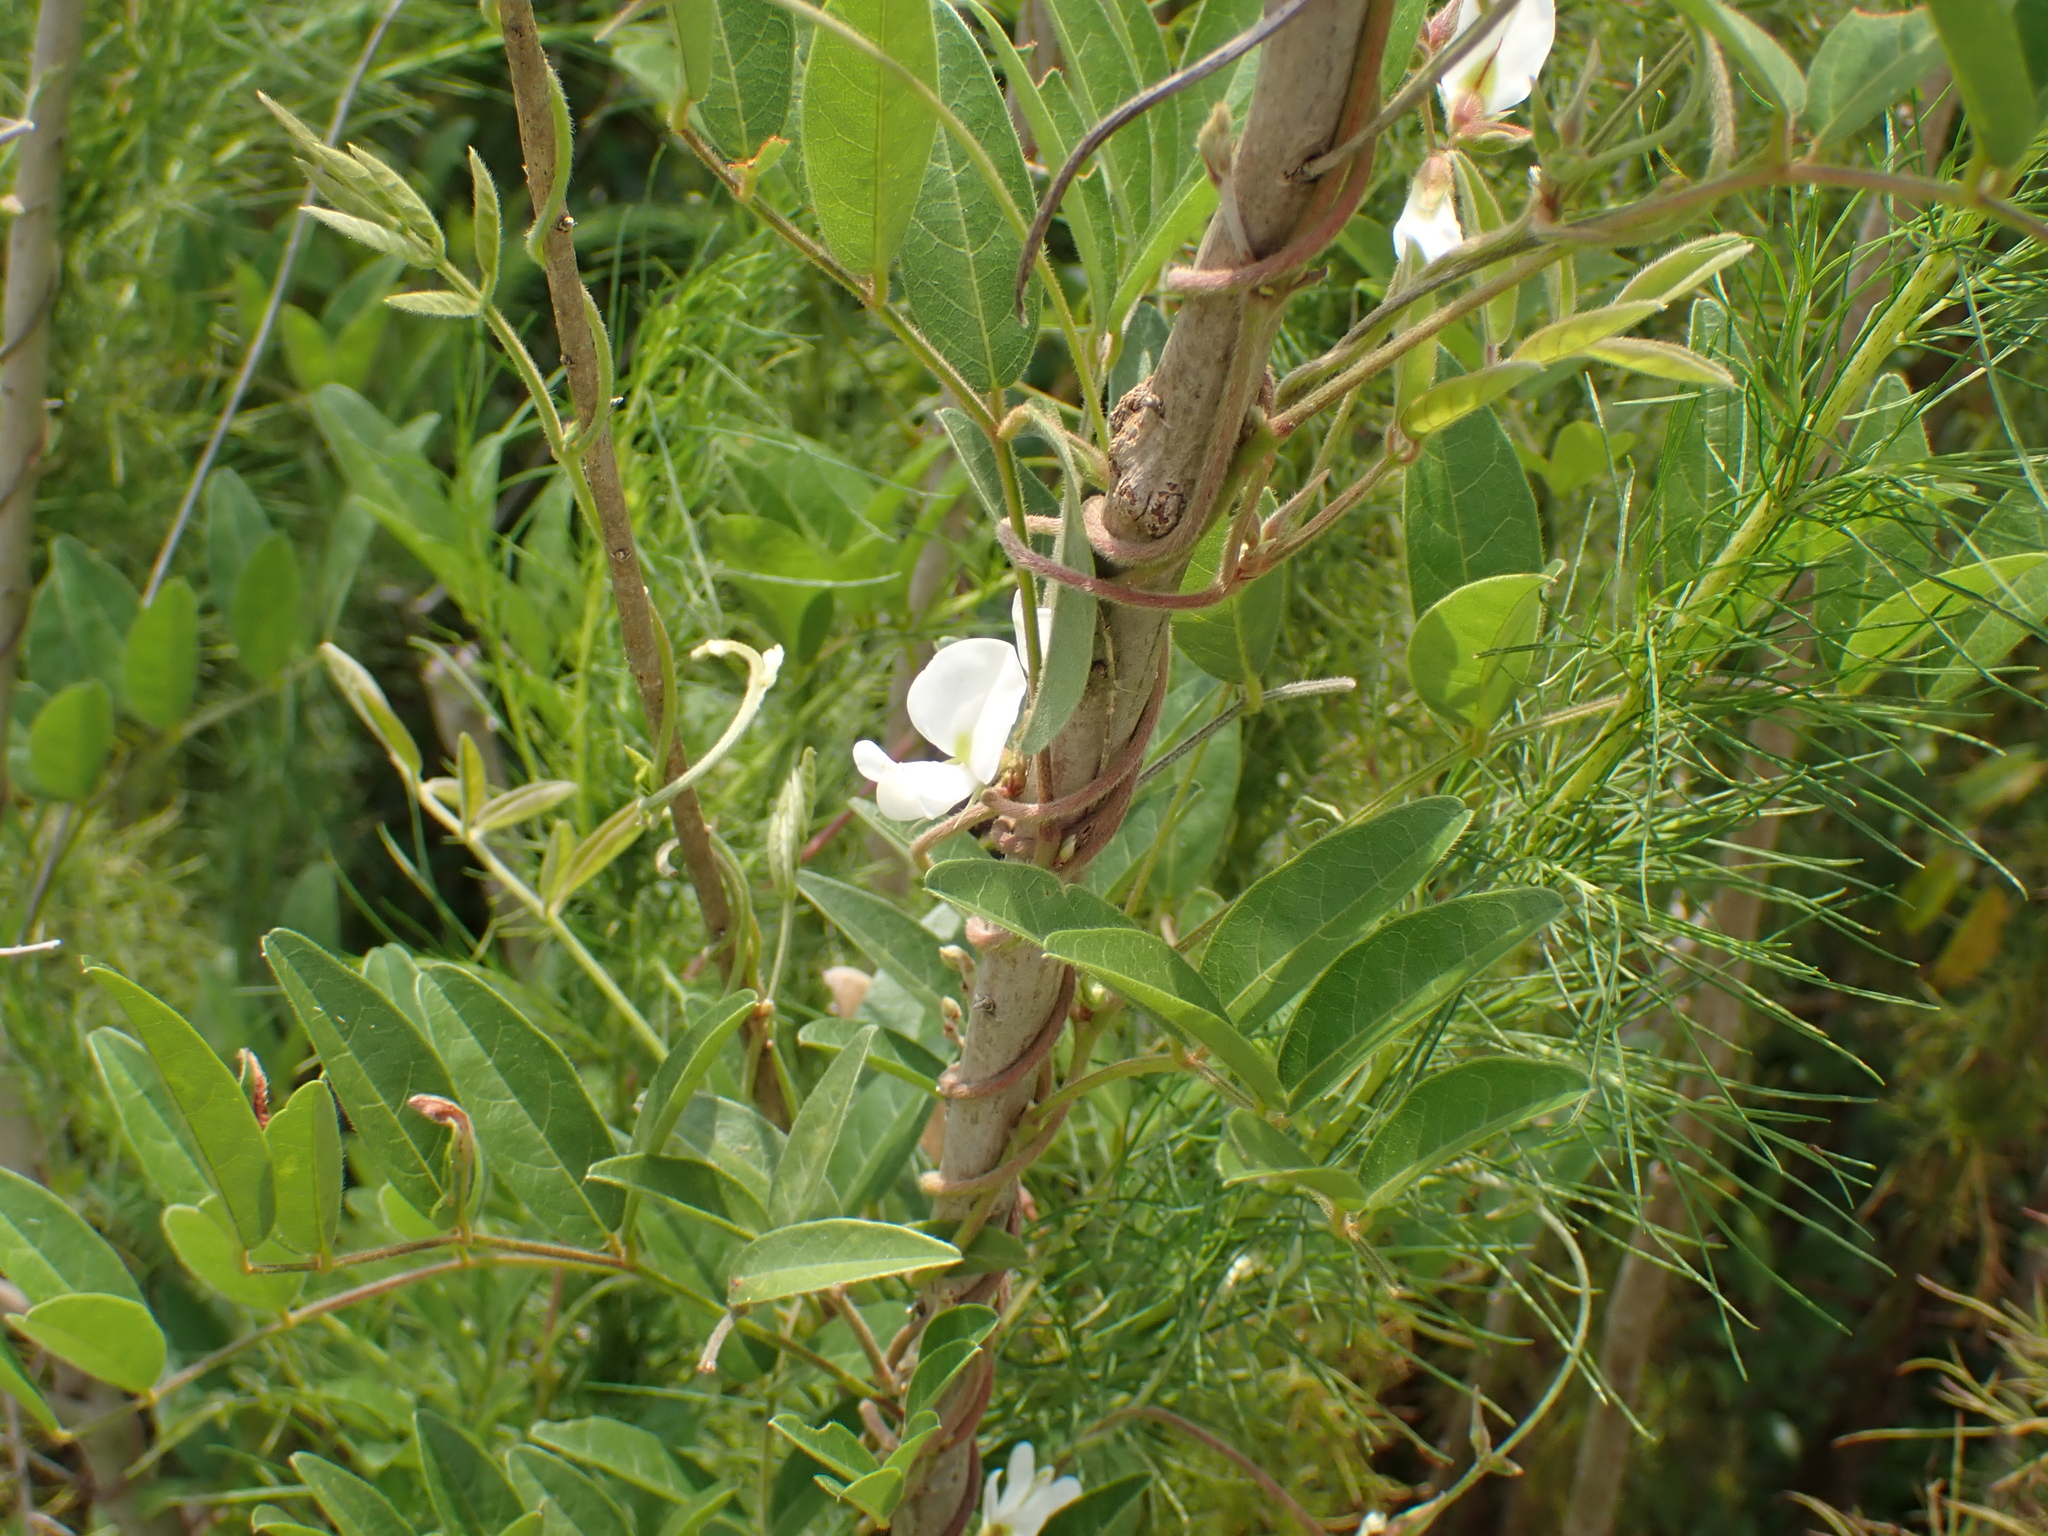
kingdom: Plantae
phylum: Tracheophyta
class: Magnoliopsida
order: Fabales
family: Fabaceae
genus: Galactia
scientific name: Galactia elliottii
